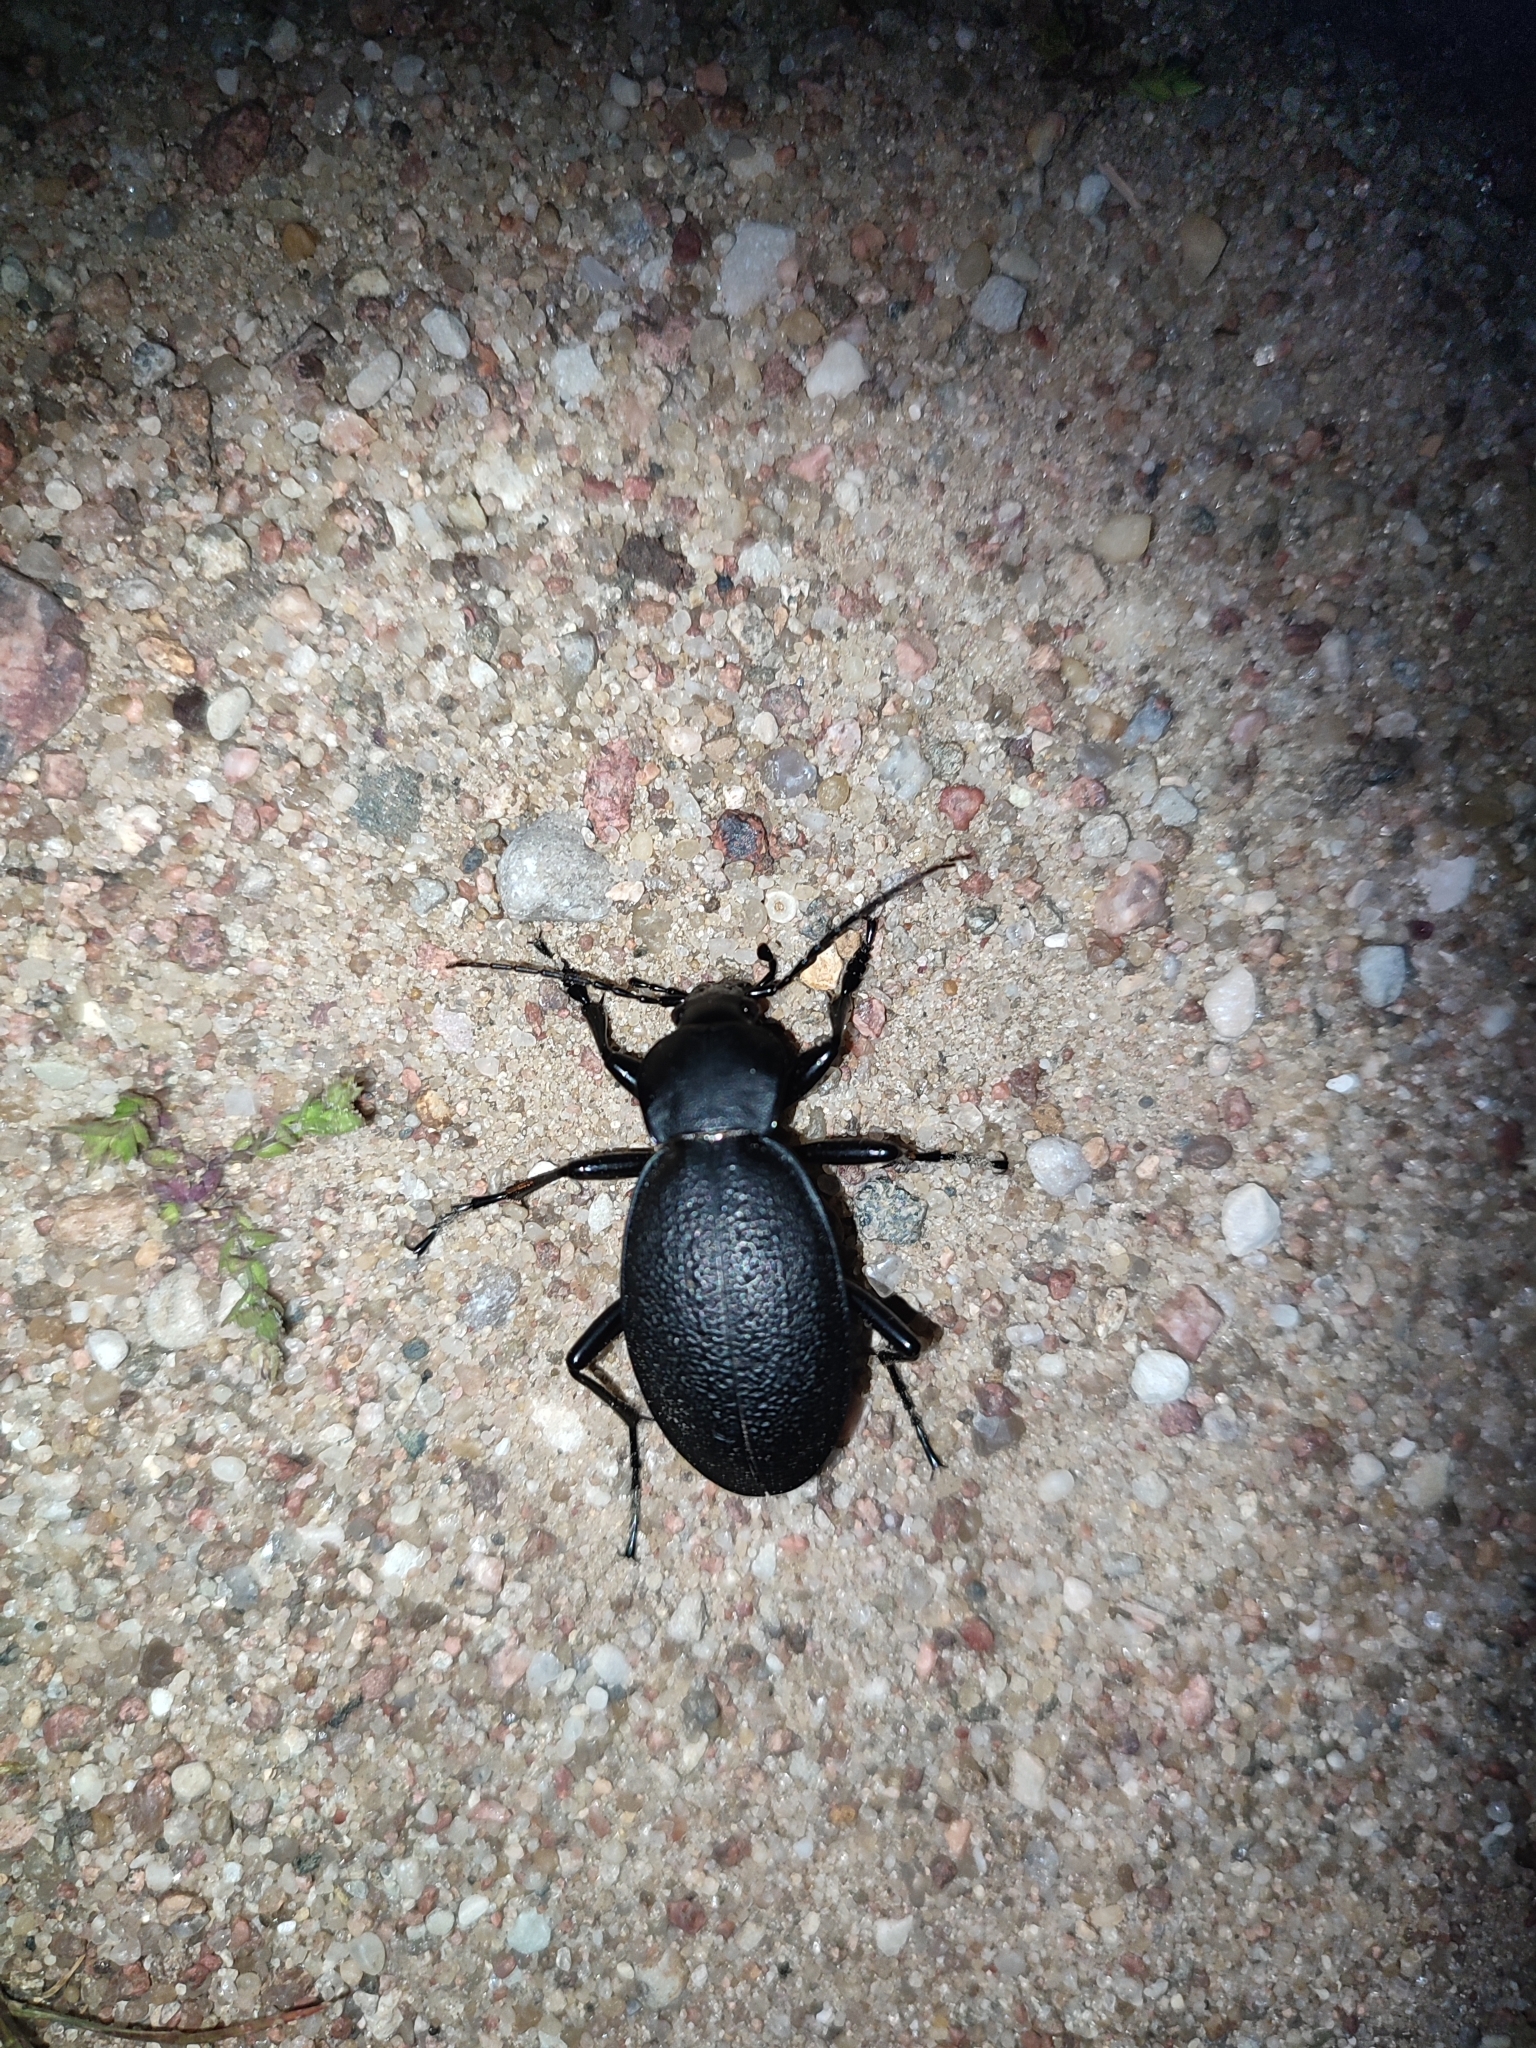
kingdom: Animalia
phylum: Arthropoda
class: Insecta
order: Coleoptera
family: Carabidae
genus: Carabus
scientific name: Carabus coriaceus
